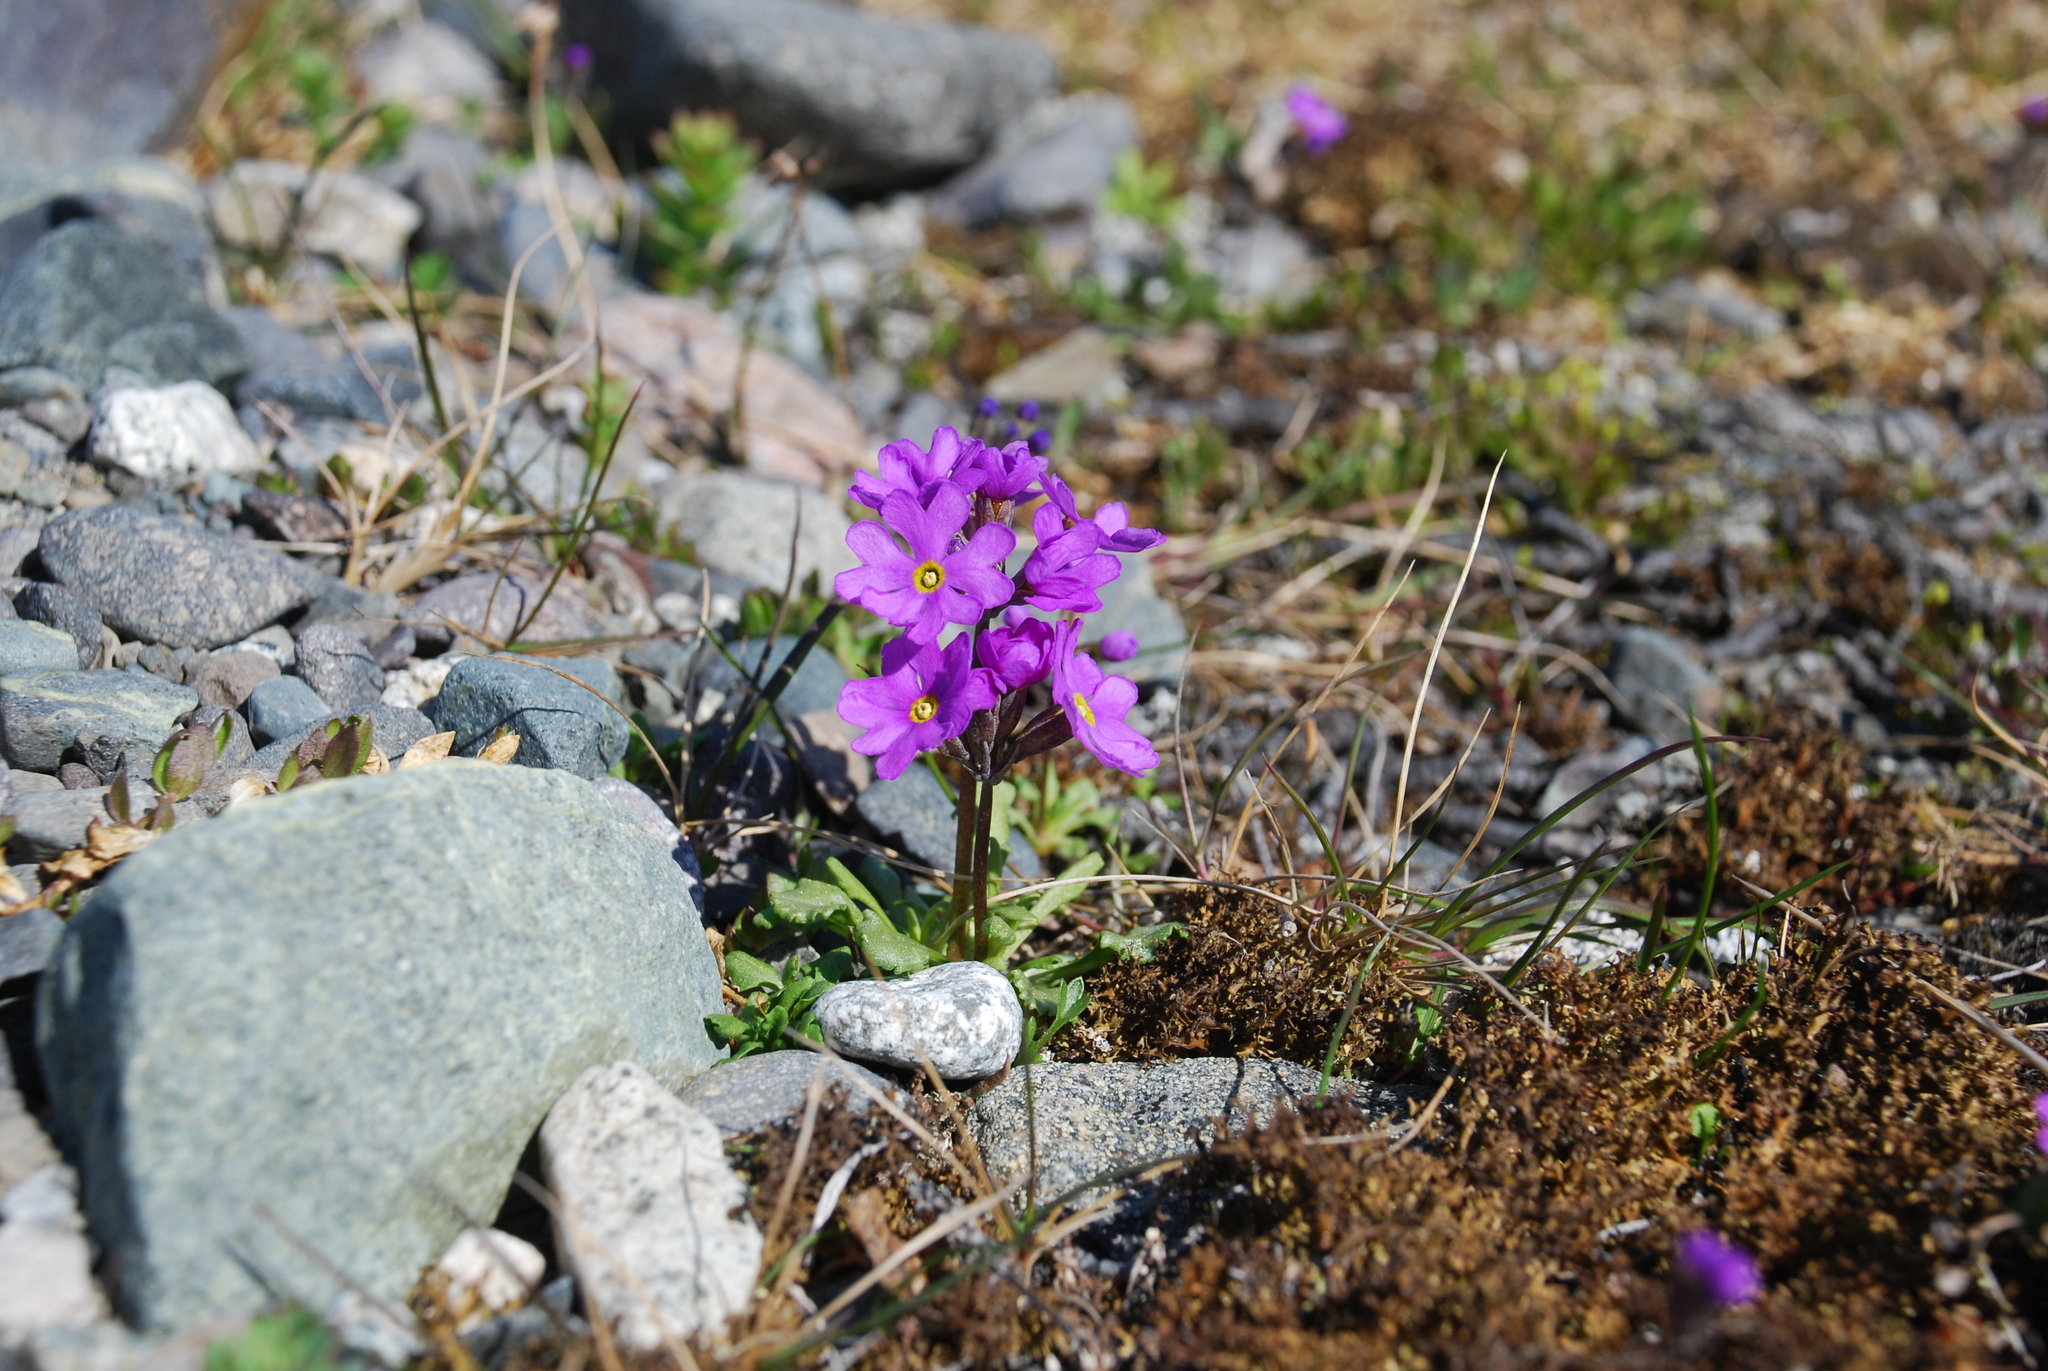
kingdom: Plantae
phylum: Tracheophyta
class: Magnoliopsida
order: Ericales
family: Primulaceae
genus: Primula
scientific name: Primula borealis
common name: Northern primrose
